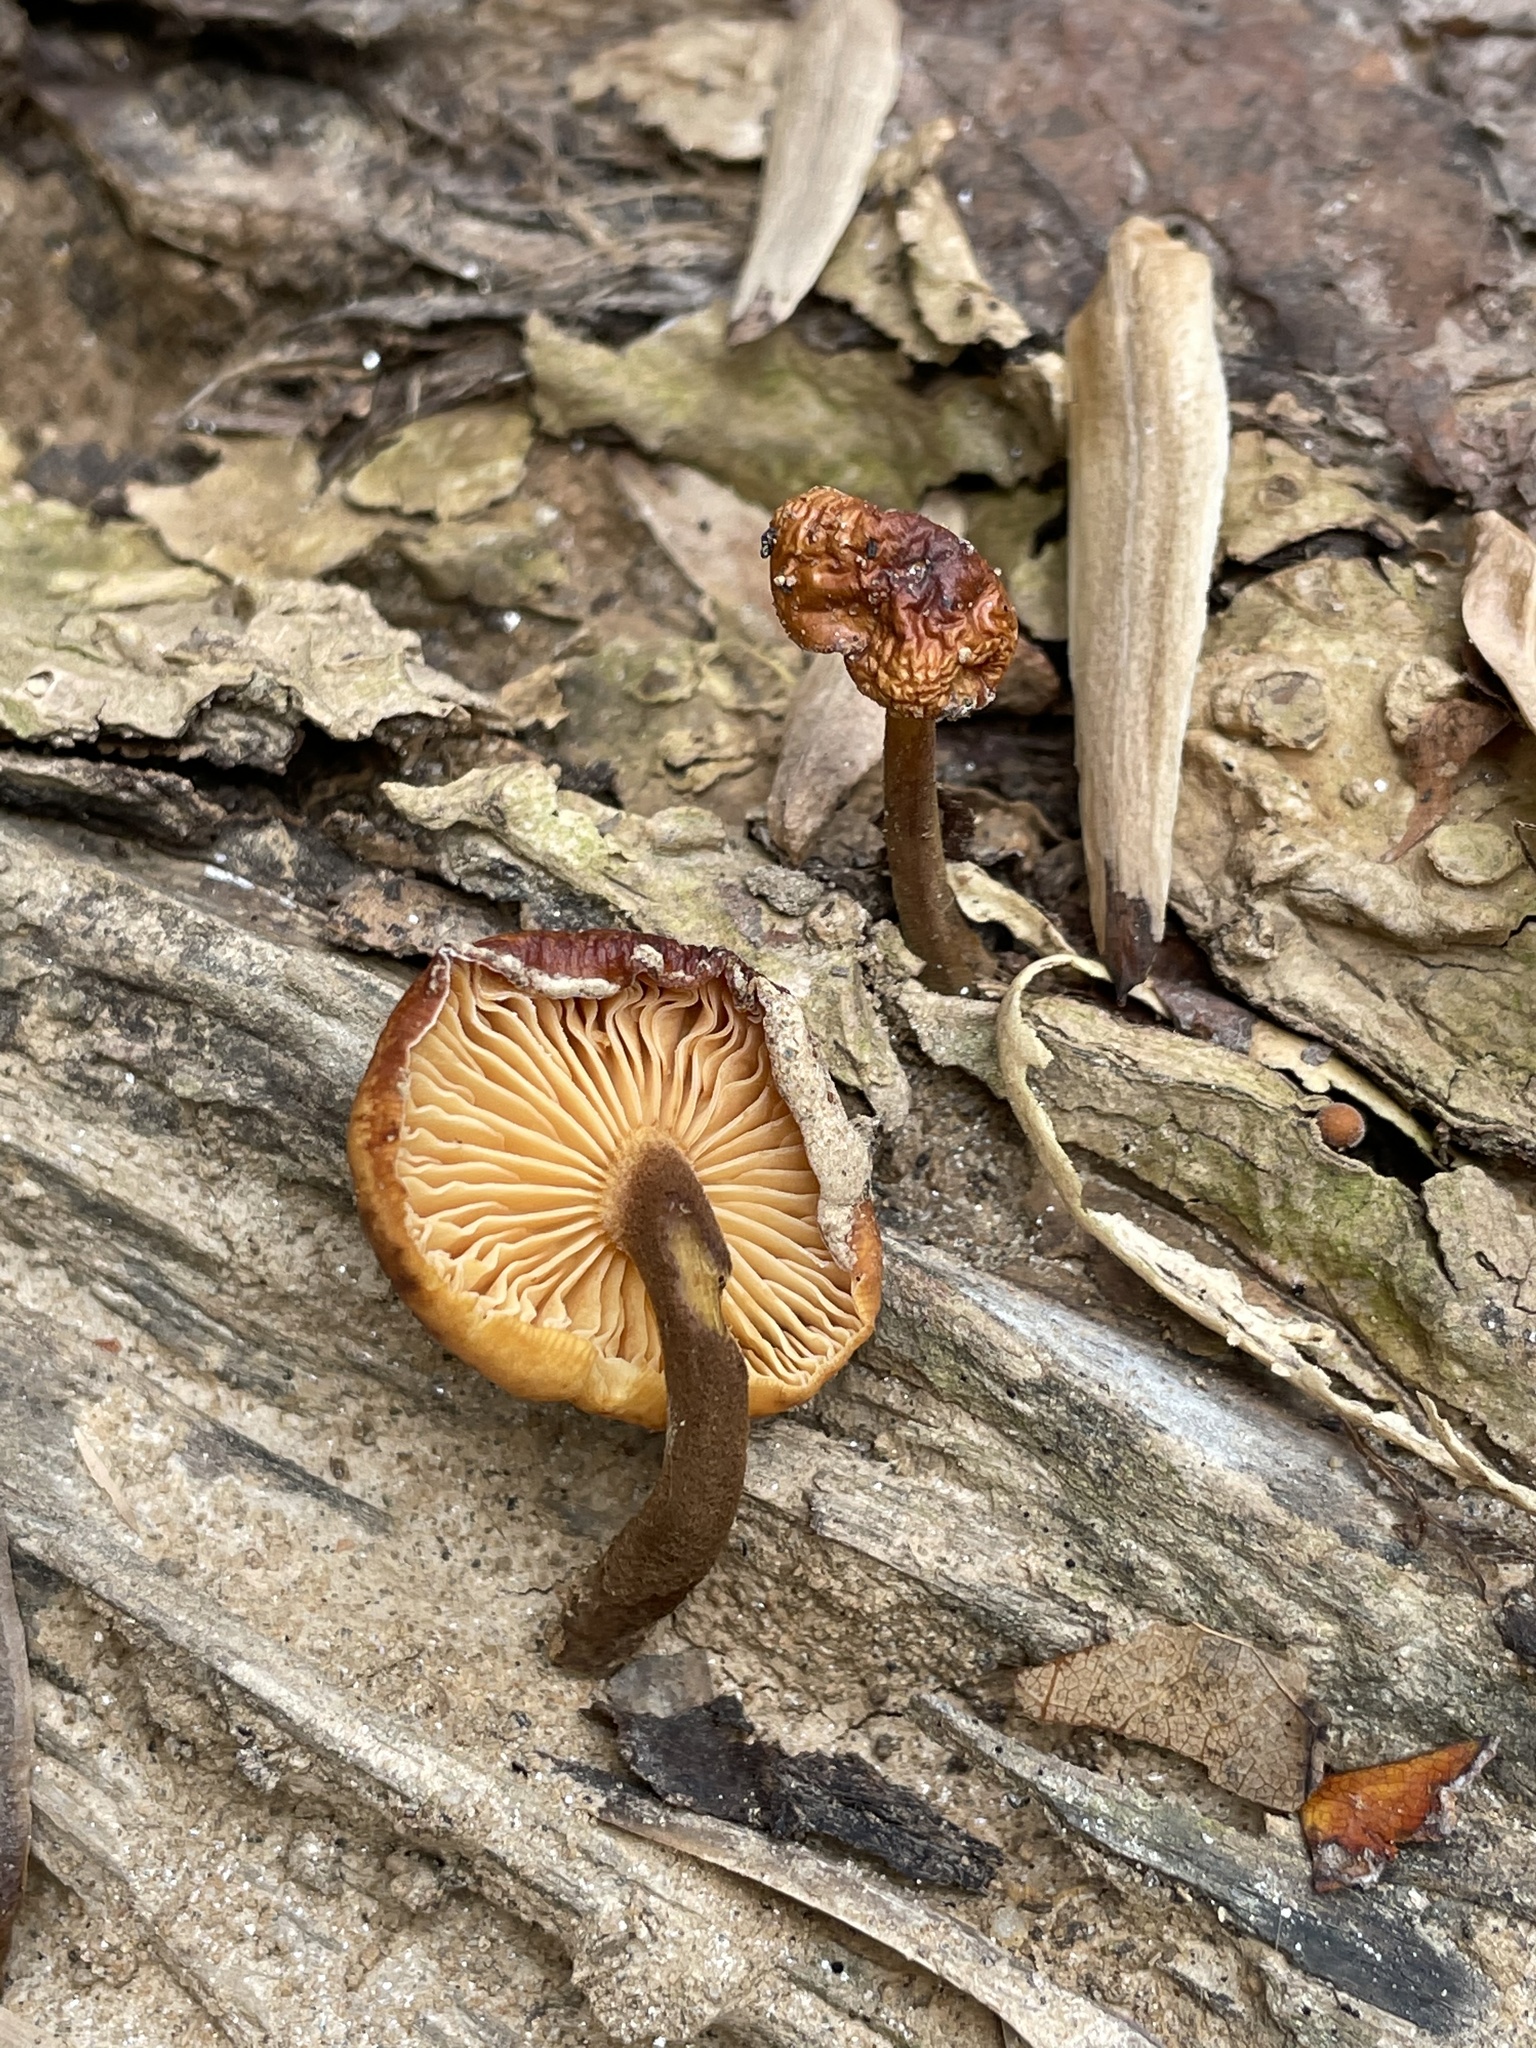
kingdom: Fungi
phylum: Basidiomycota
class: Agaricomycetes
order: Agaricales
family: Physalacriaceae
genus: Flammulina
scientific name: Flammulina velutipes
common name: Velvet shank
